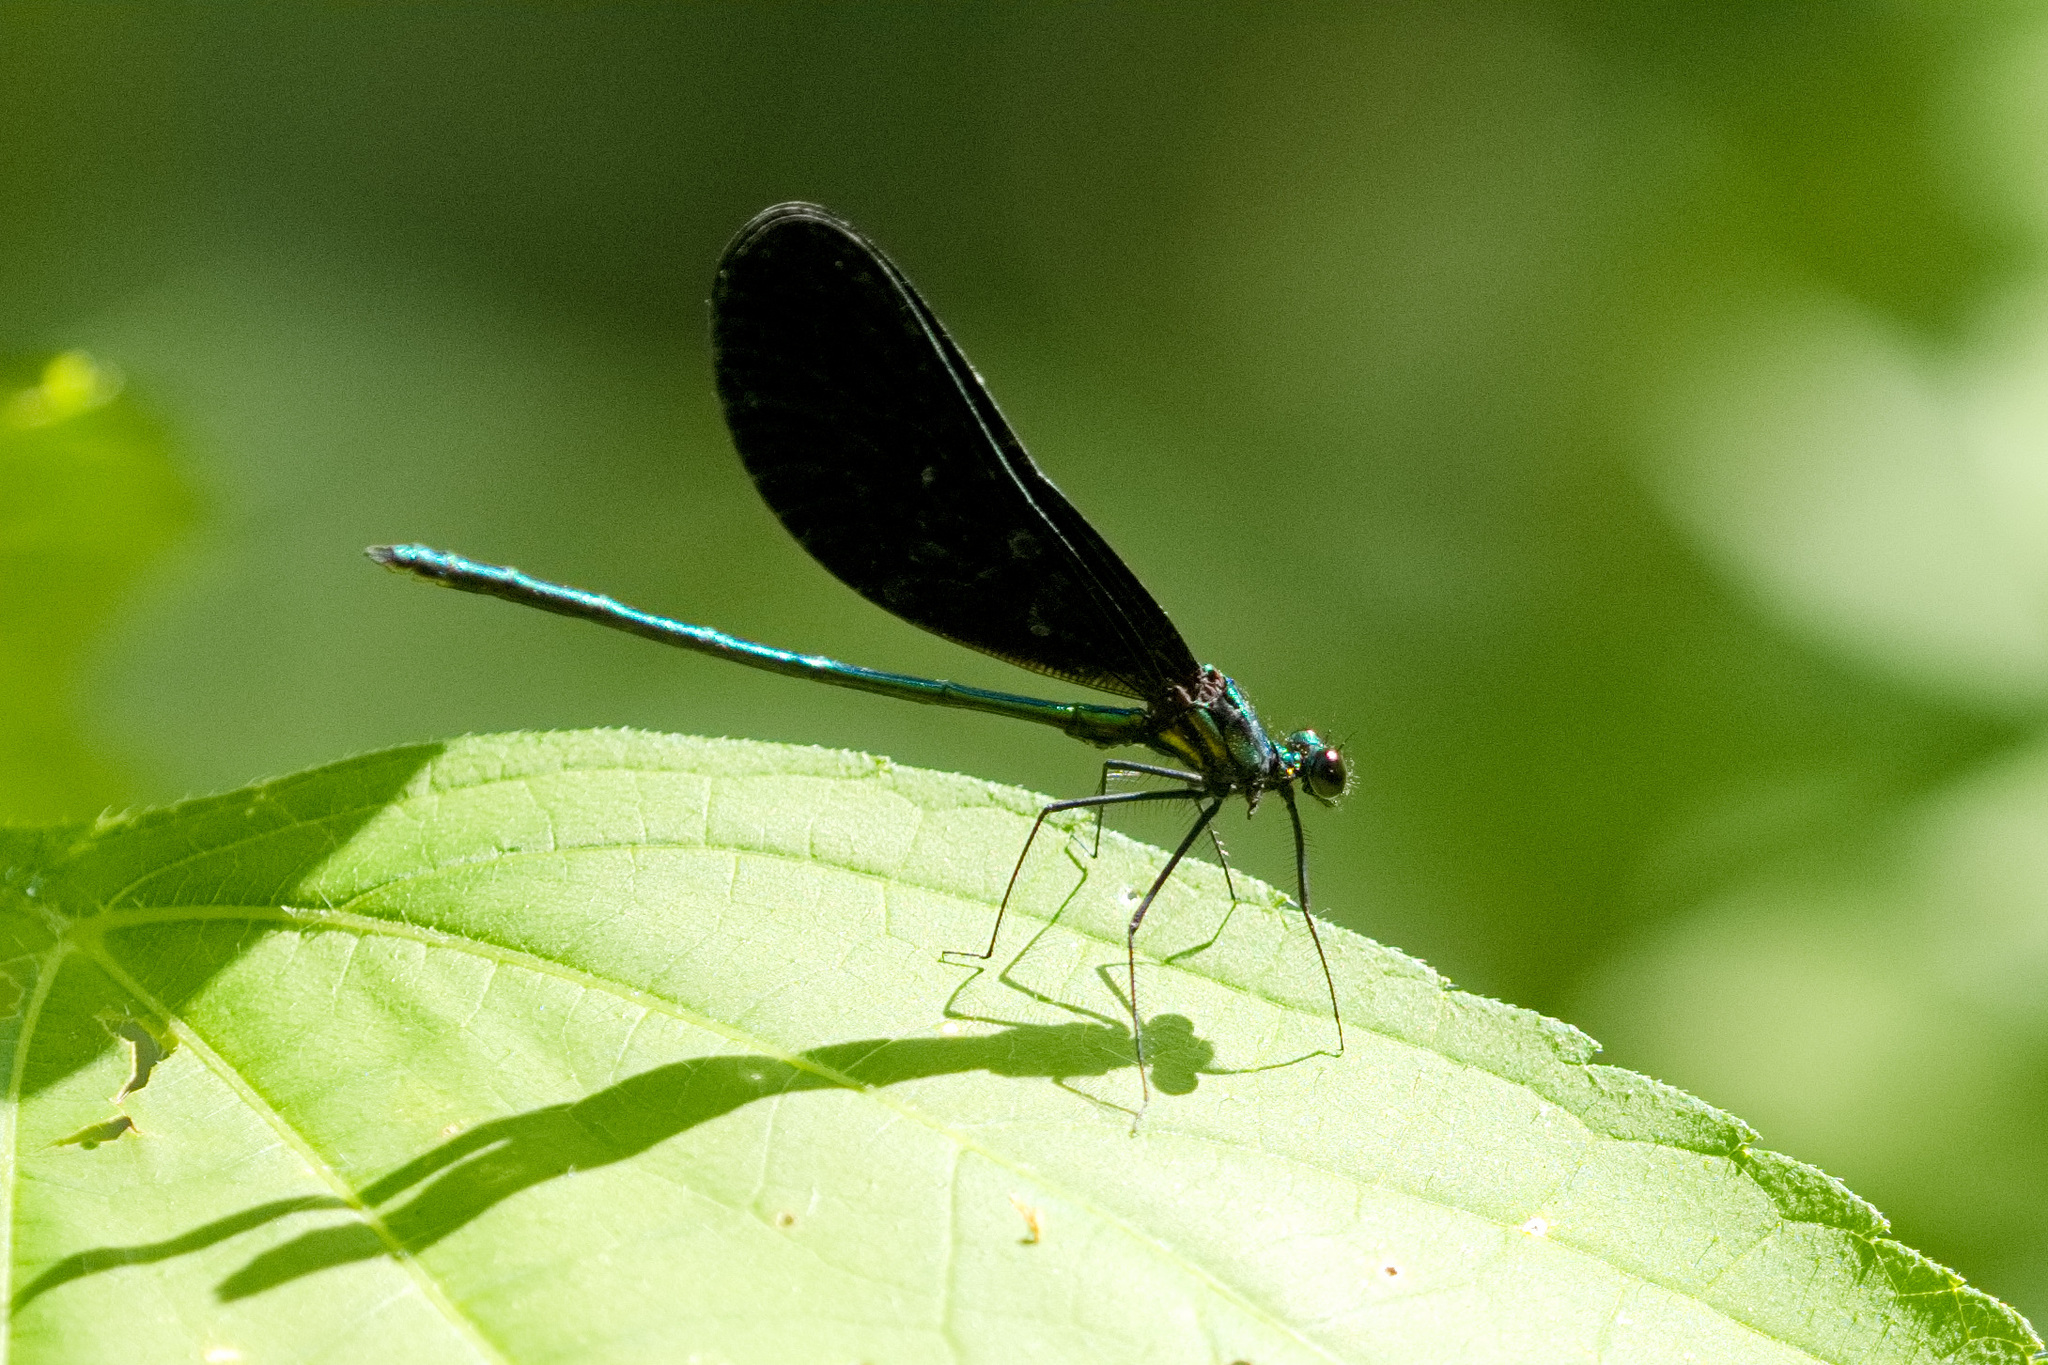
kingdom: Animalia
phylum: Arthropoda
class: Insecta
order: Odonata
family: Calopterygidae
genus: Calopteryx
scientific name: Calopteryx maculata
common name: Ebony jewelwing
